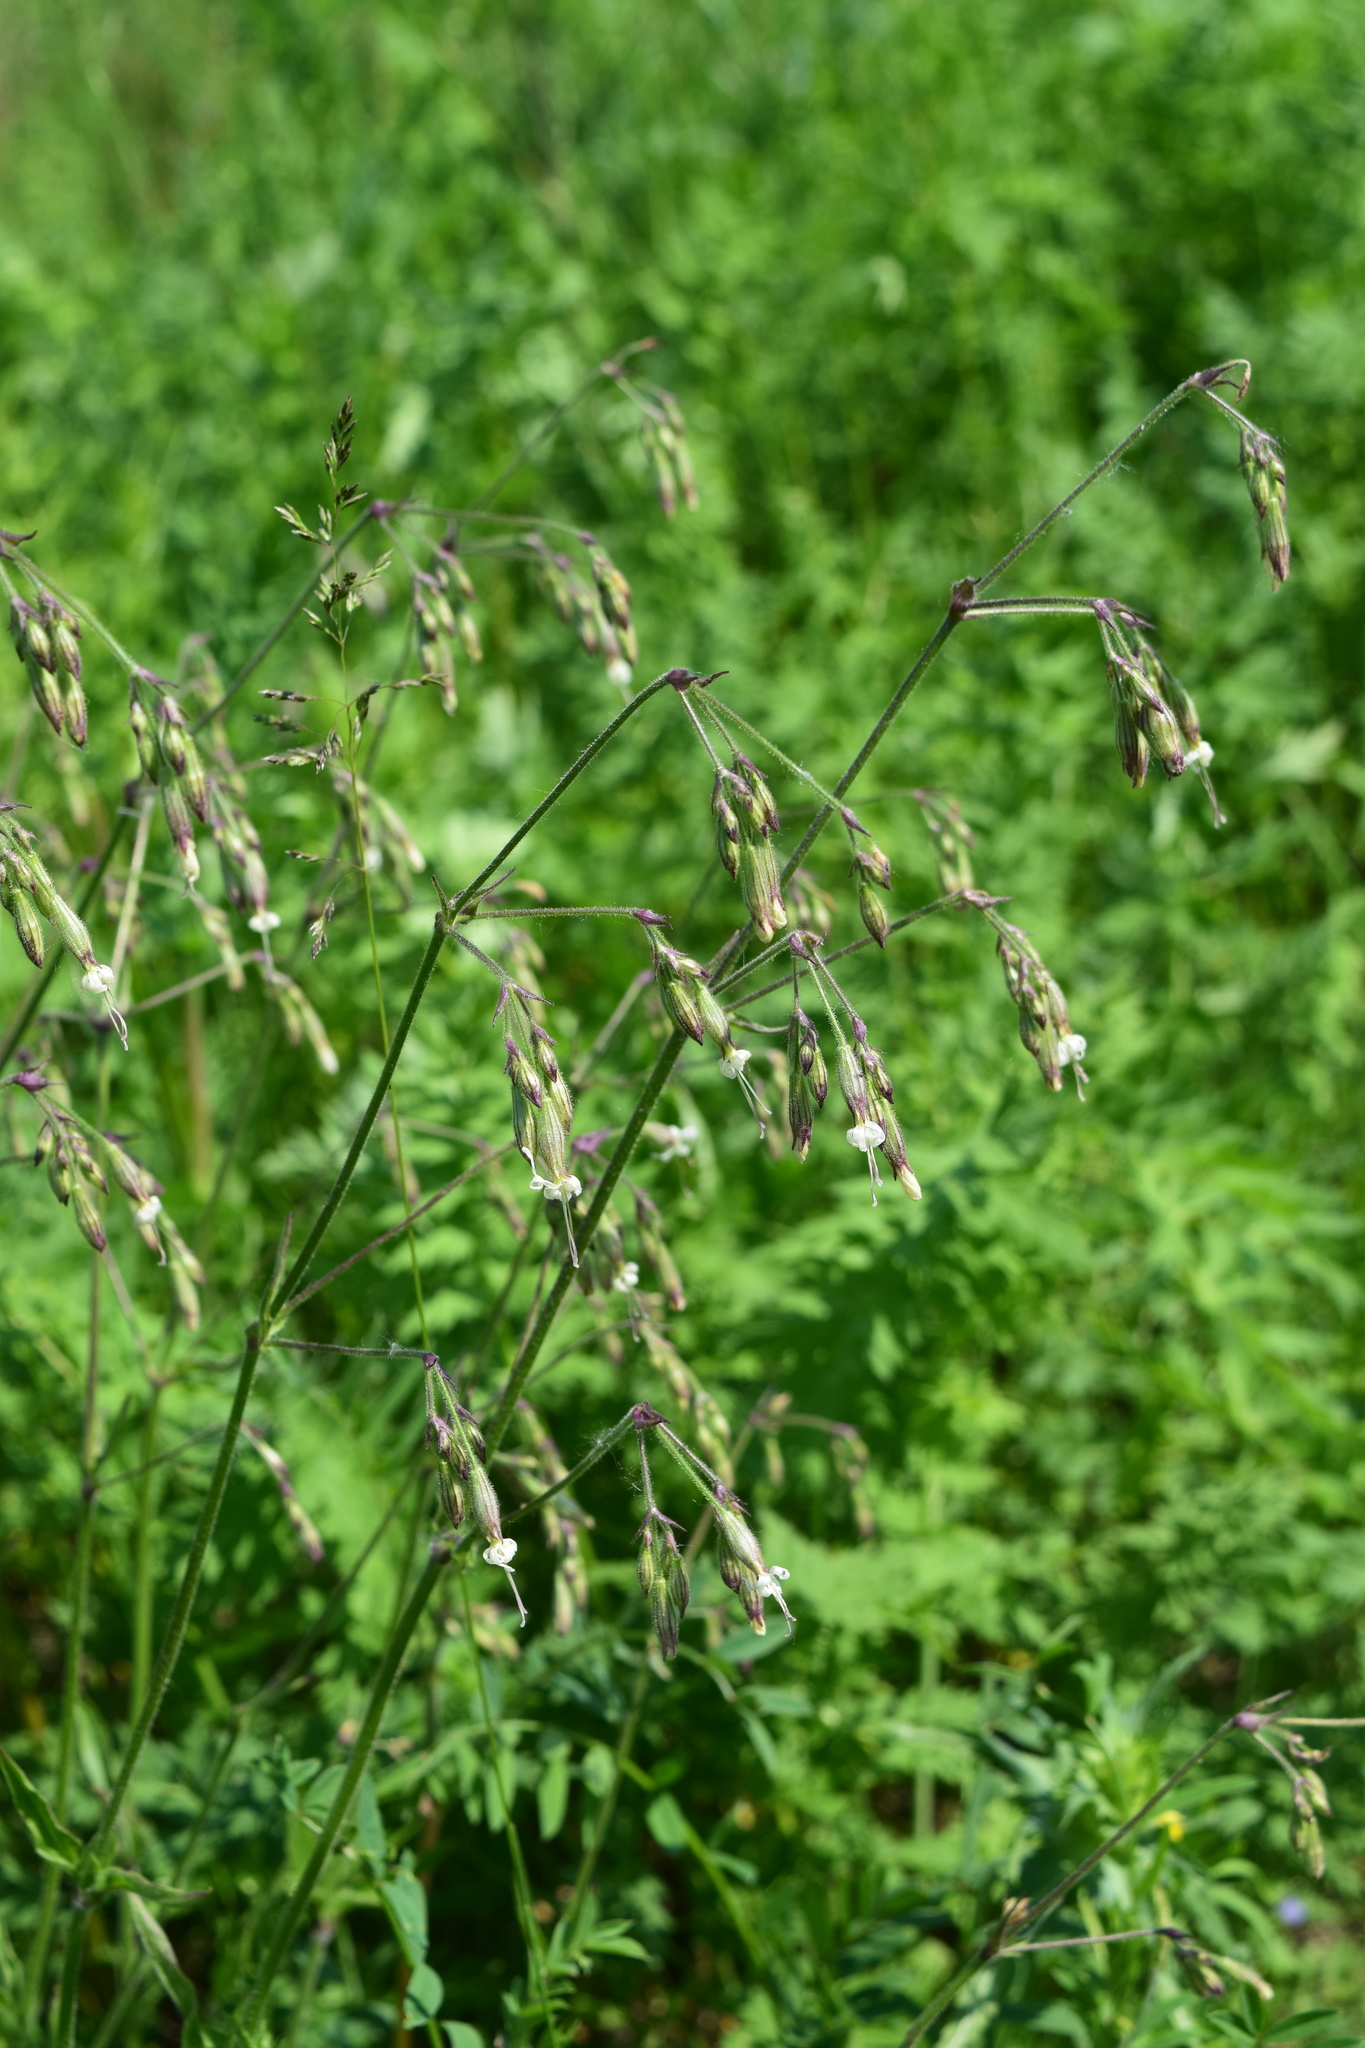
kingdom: Plantae
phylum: Tracheophyta
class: Magnoliopsida
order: Caryophyllales
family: Caryophyllaceae
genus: Silene
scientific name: Silene nutans
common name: Nottingham catchfly
